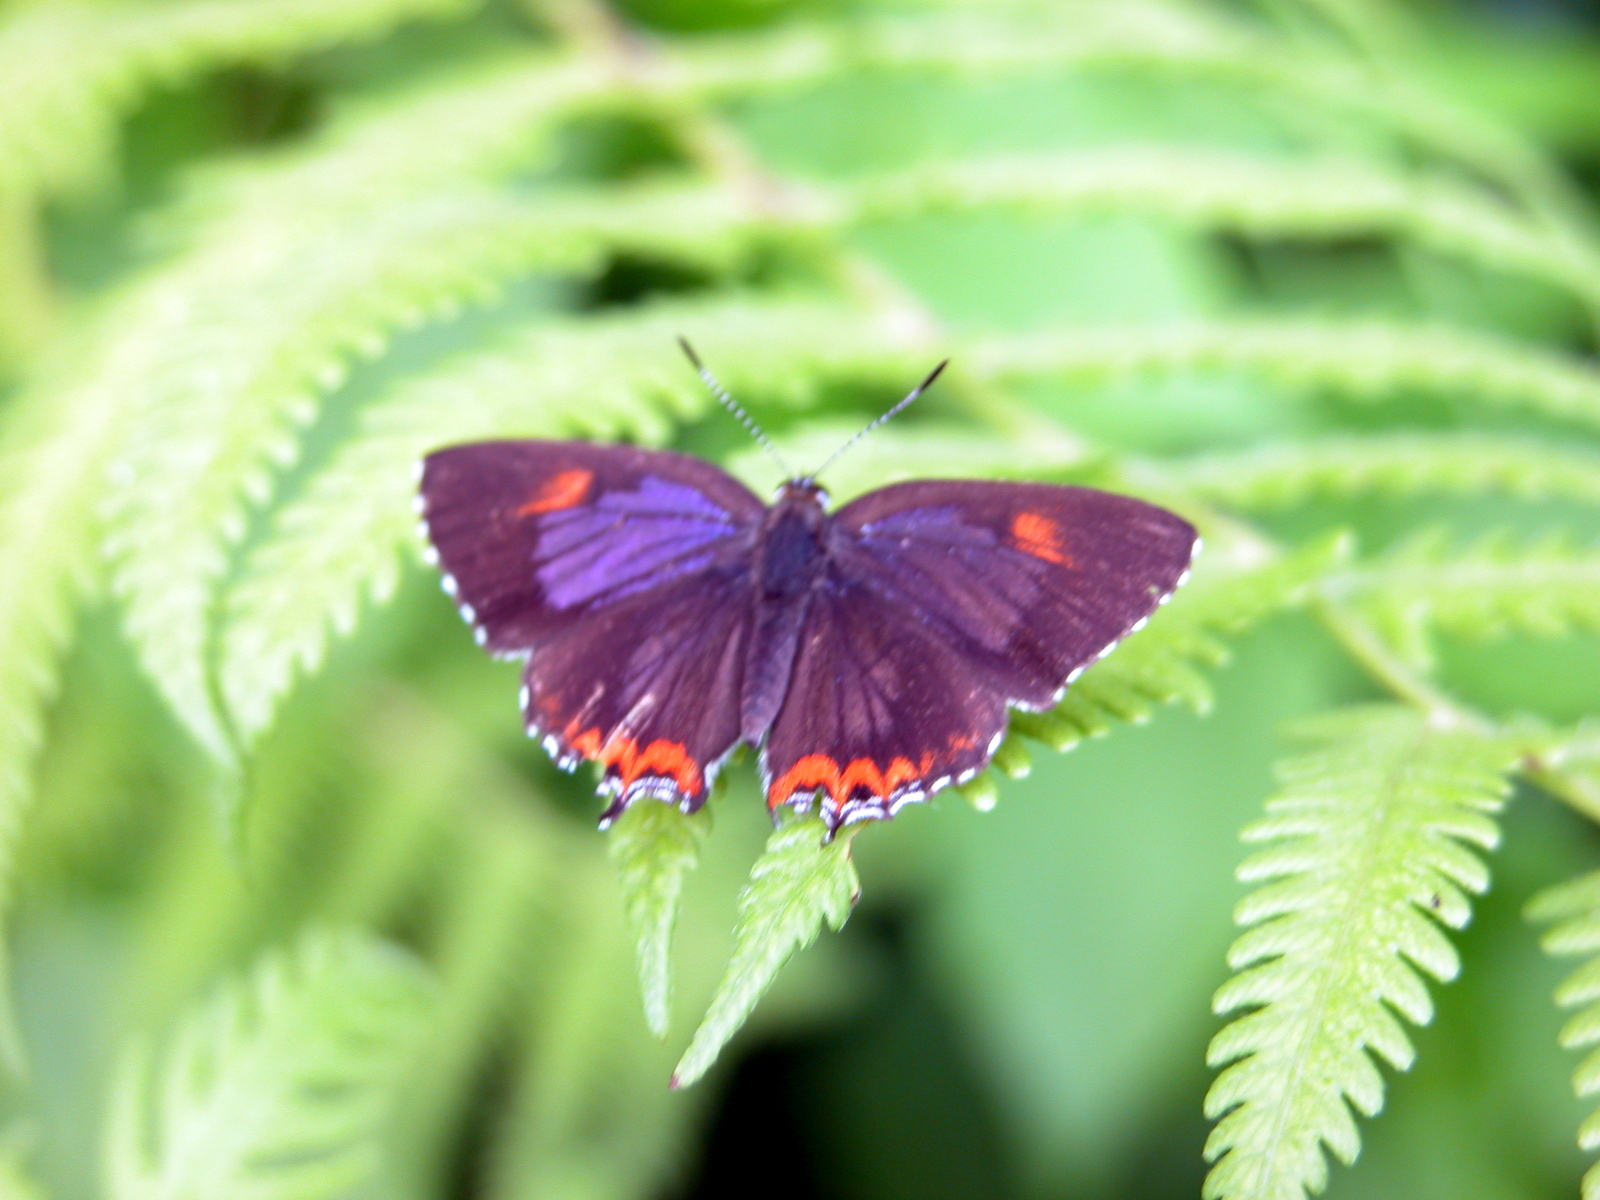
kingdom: Animalia
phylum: Arthropoda
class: Insecta
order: Lepidoptera
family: Lycaenidae
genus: Heliophorus
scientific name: Heliophorus epicles
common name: Purple sapphire
